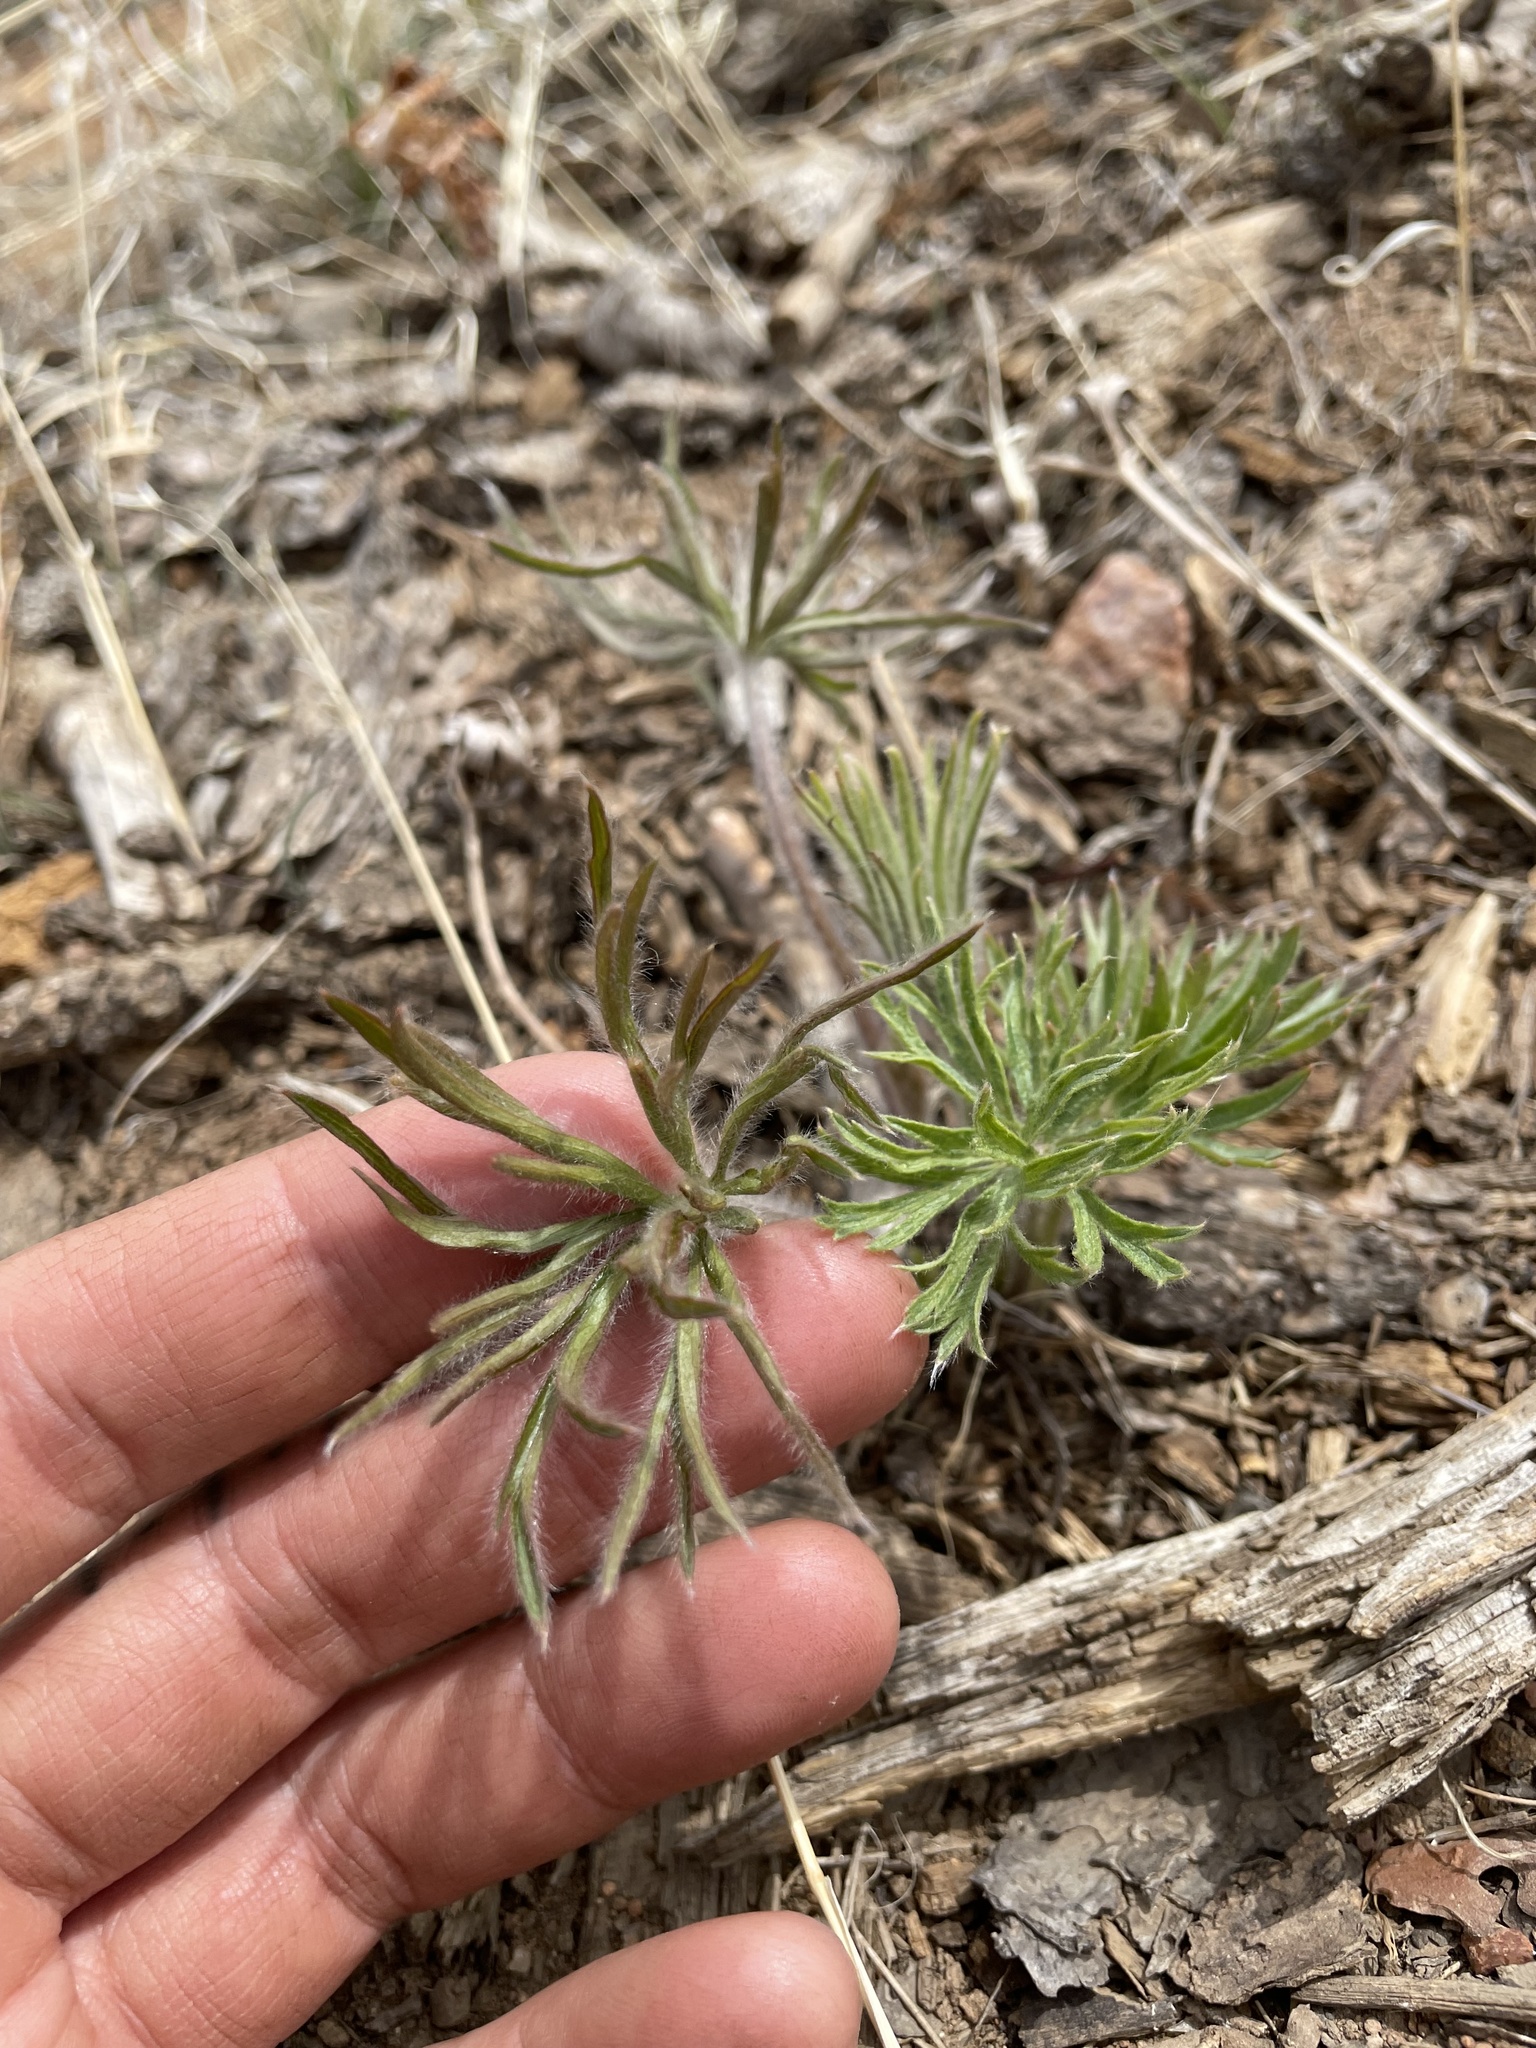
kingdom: Plantae
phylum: Tracheophyta
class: Magnoliopsida
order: Ranunculales
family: Ranunculaceae
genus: Pulsatilla
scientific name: Pulsatilla nuttalliana
